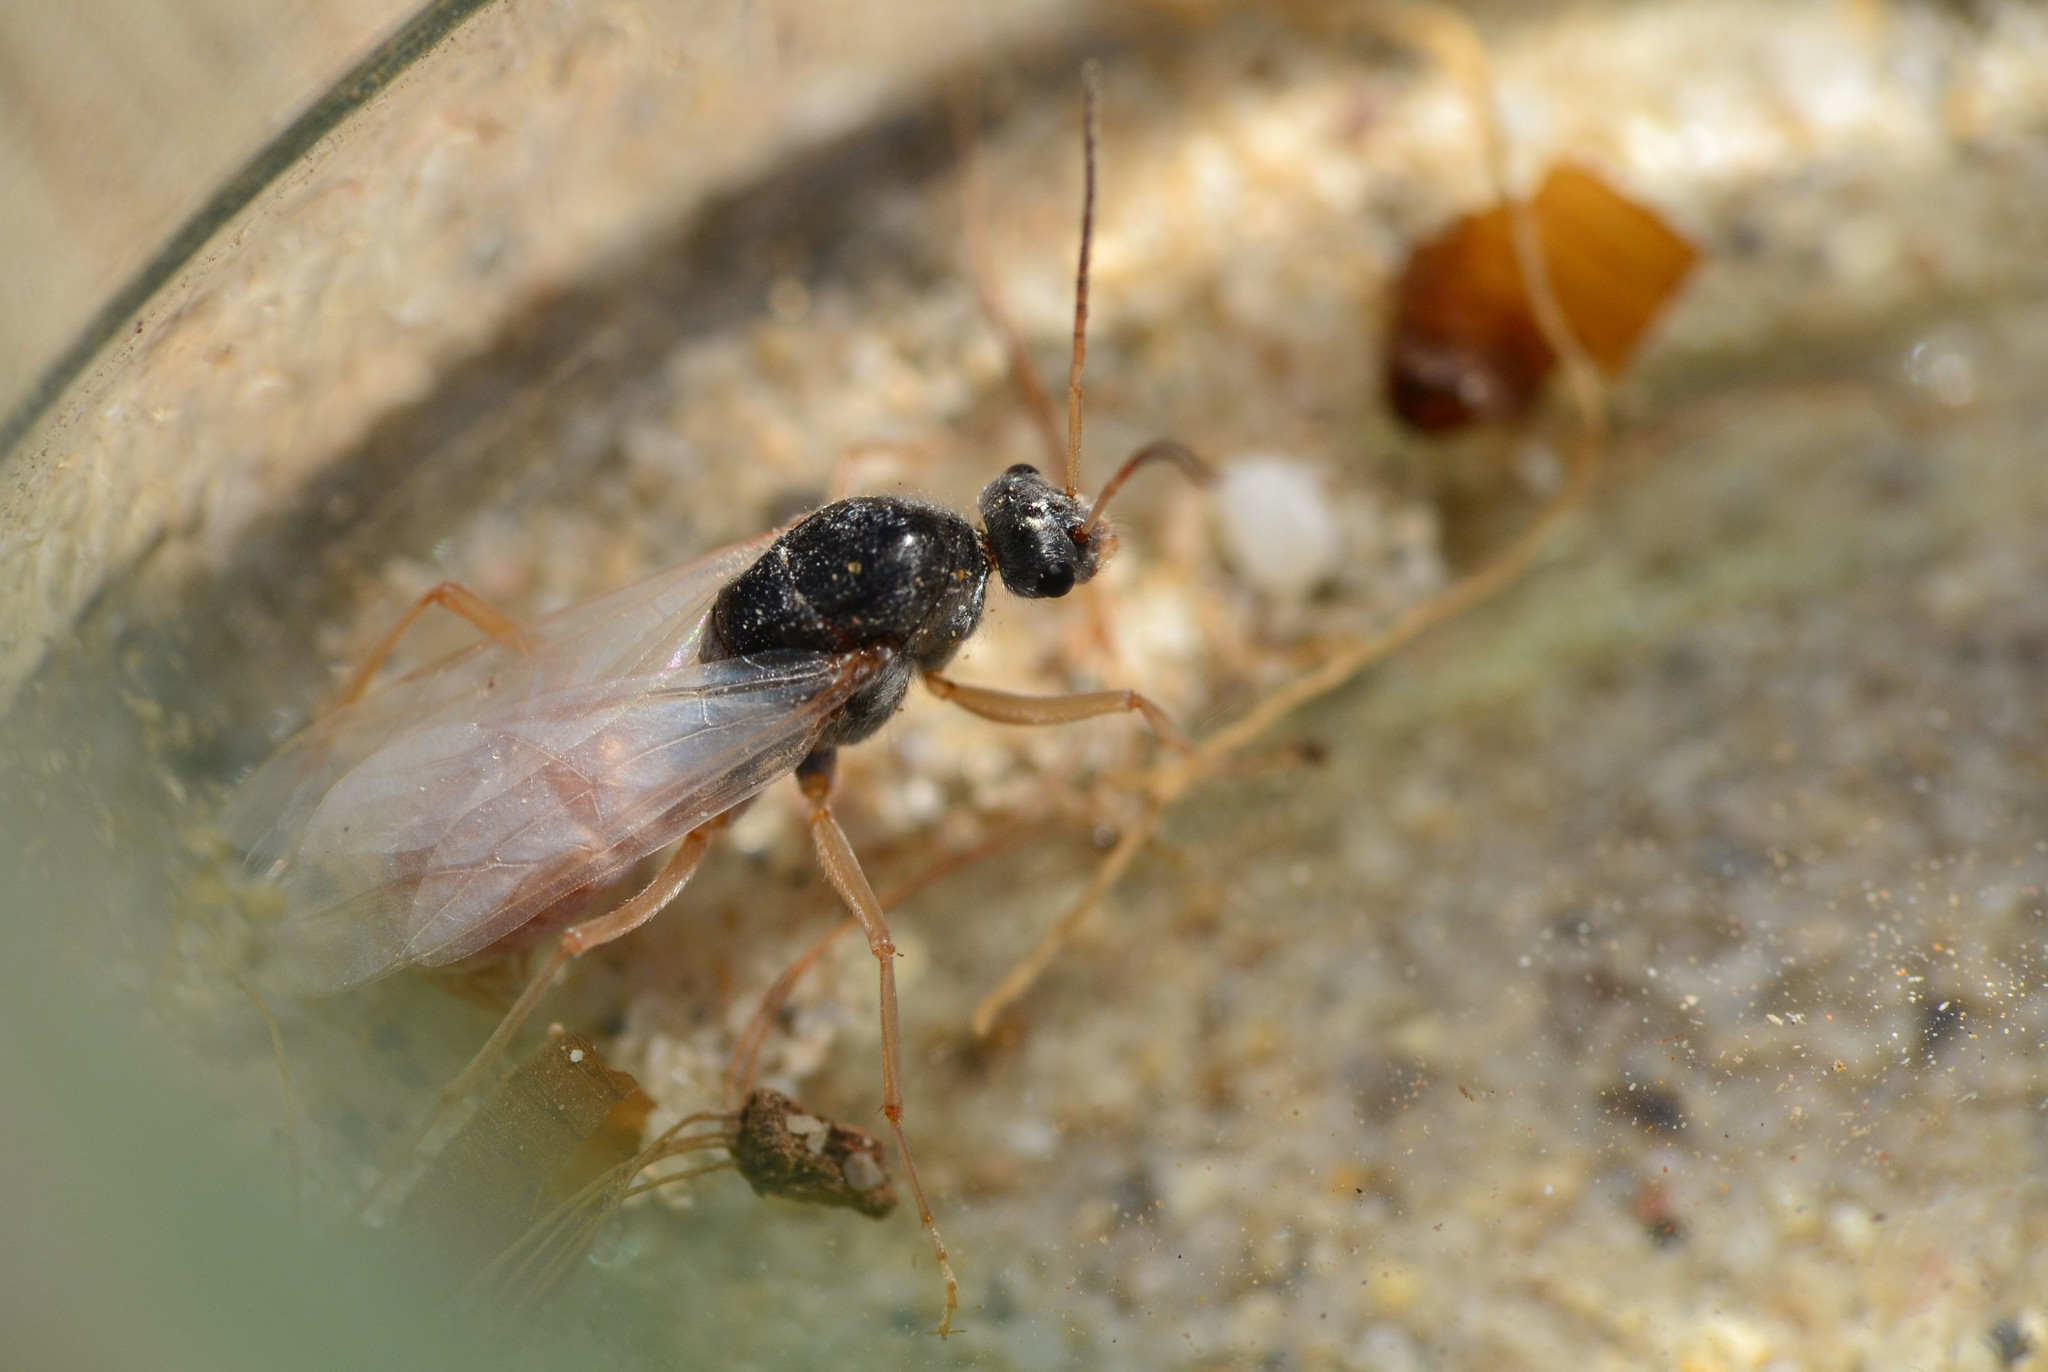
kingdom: Animalia
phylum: Arthropoda
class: Insecta
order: Hymenoptera
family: Formicidae
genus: Cataglyphis
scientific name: Cataglyphis bombycinus
